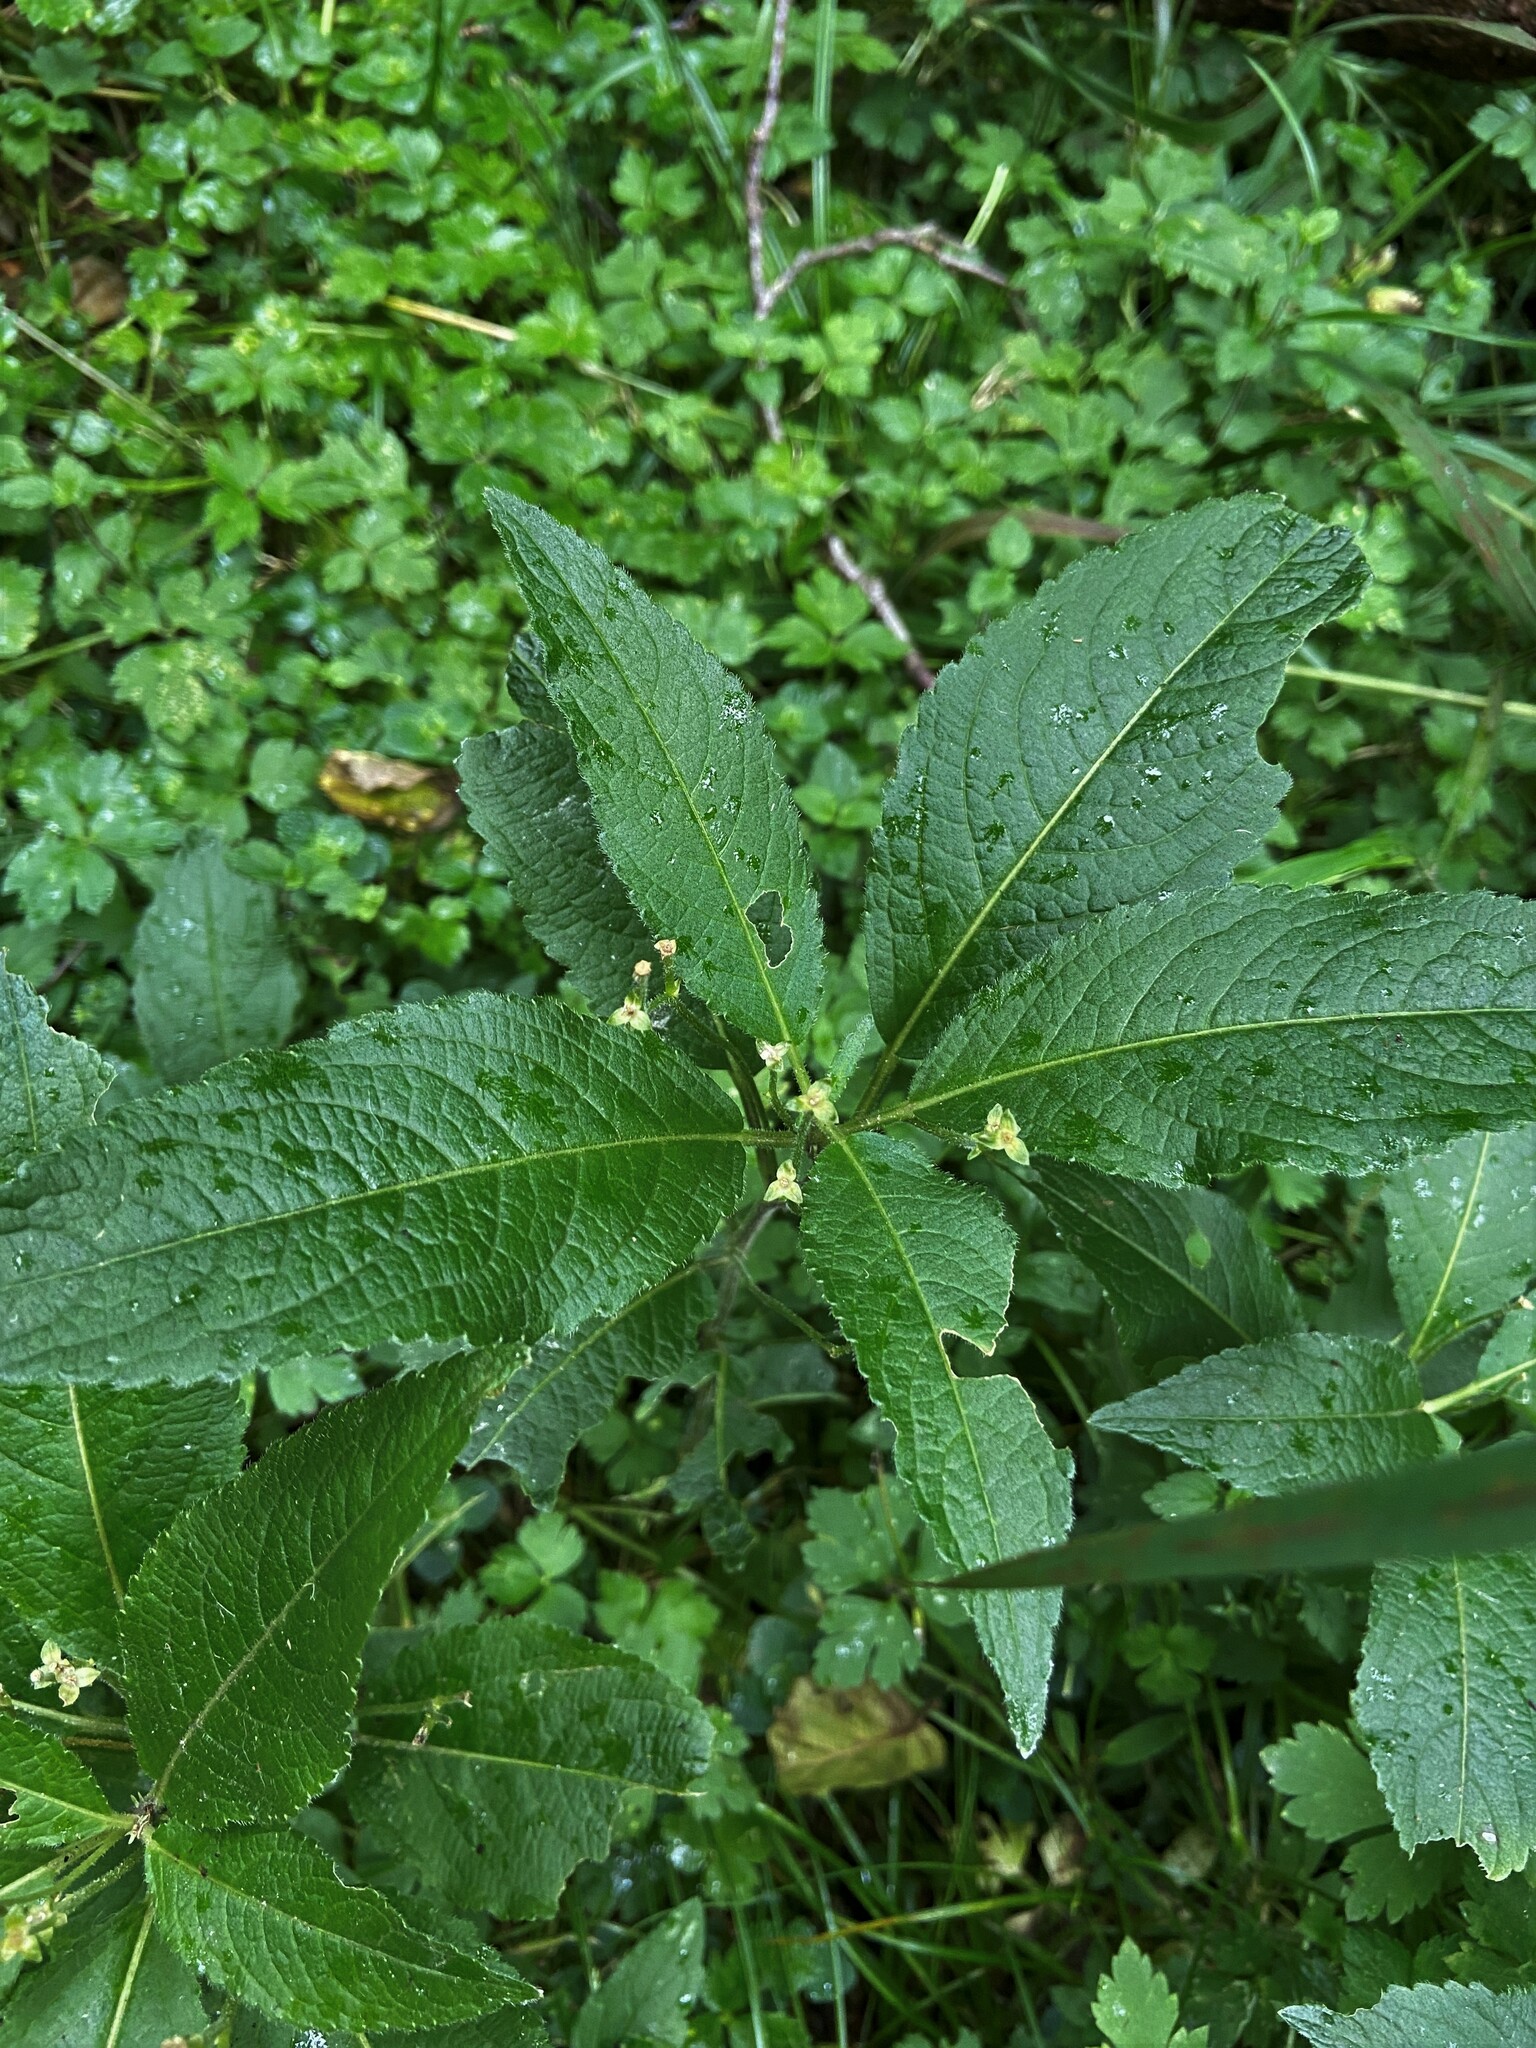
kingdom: Plantae
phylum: Tracheophyta
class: Magnoliopsida
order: Malpighiales
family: Euphorbiaceae
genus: Mercurialis
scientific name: Mercurialis perennis
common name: Dog mercury
